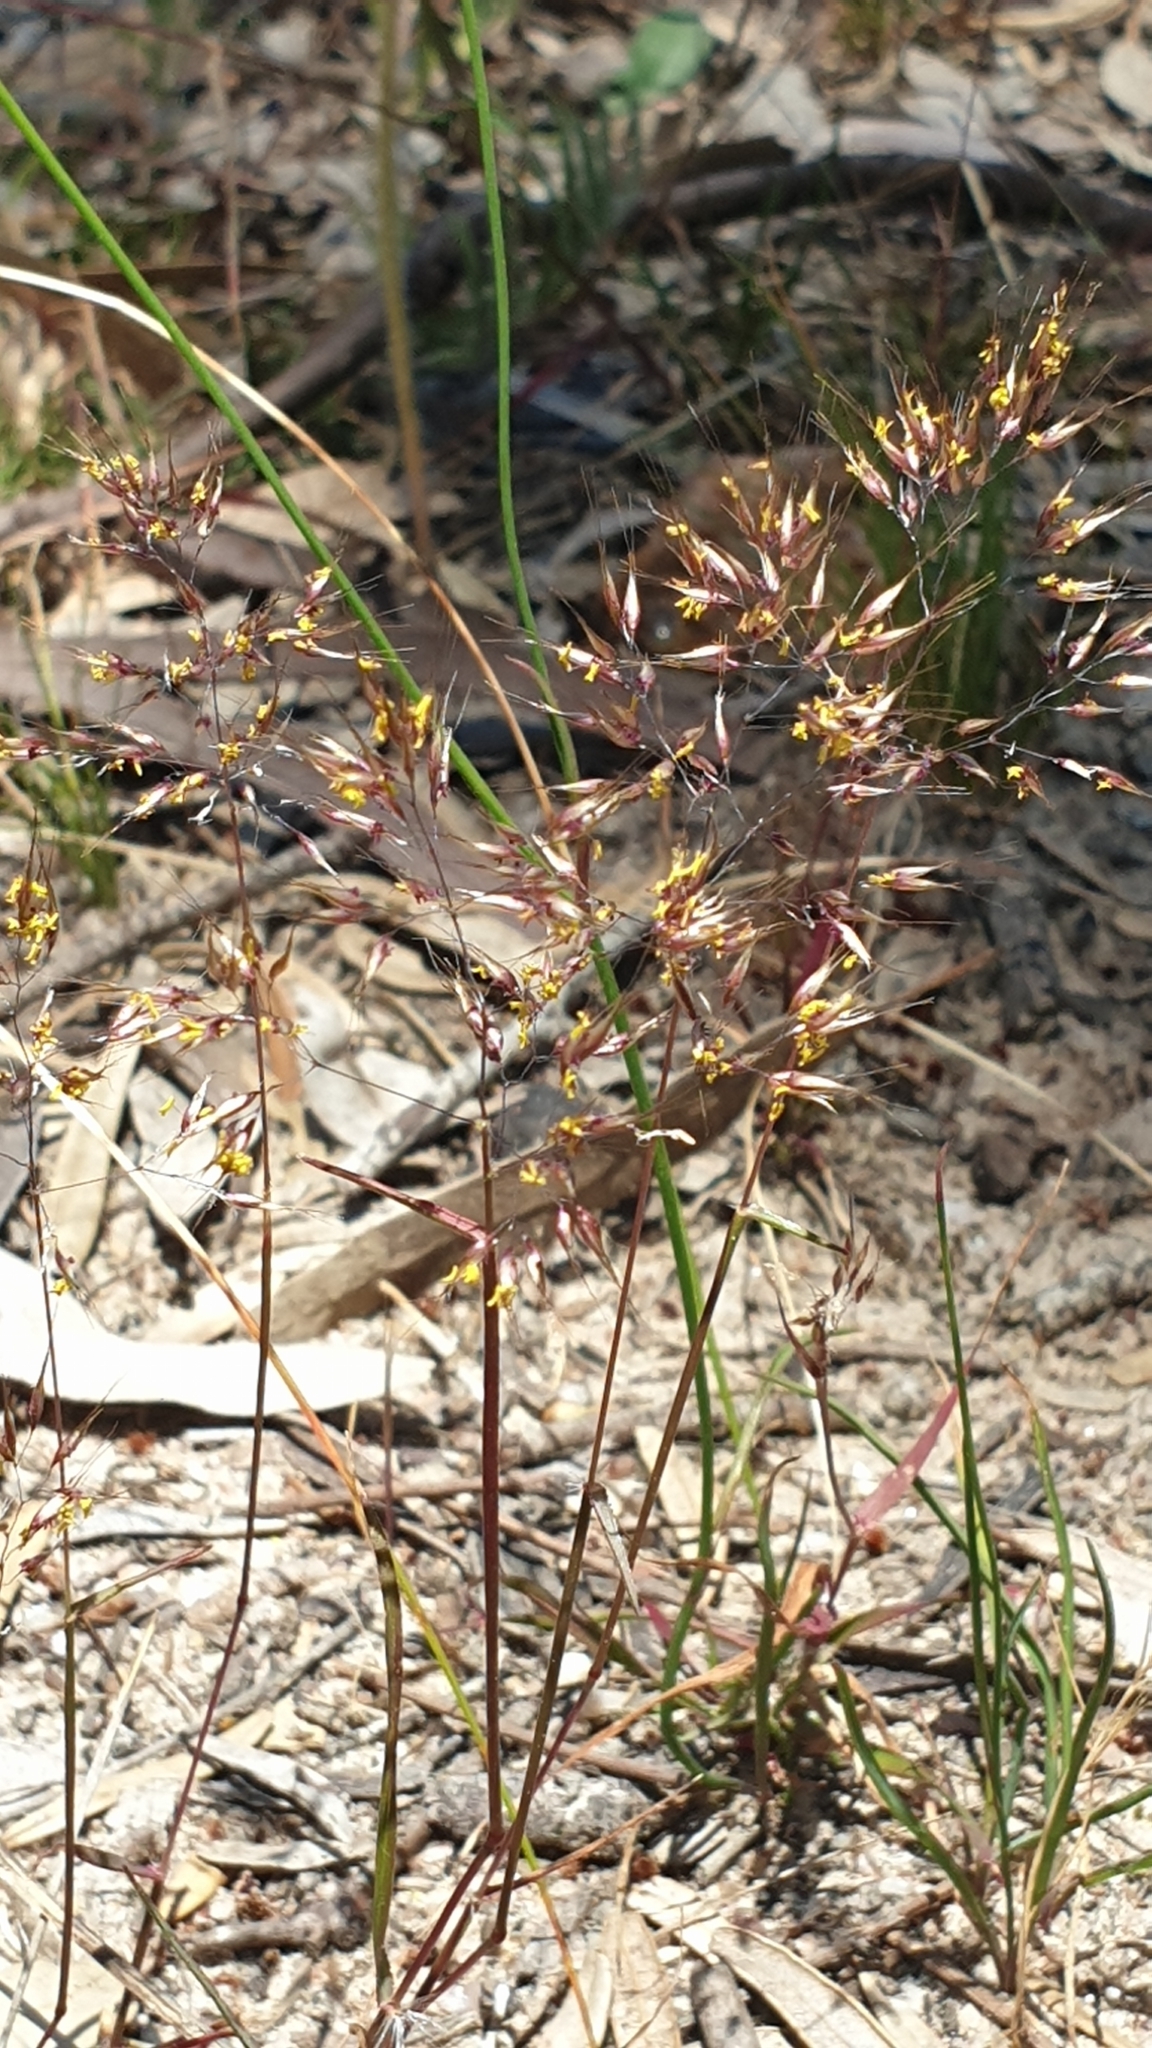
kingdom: Plantae
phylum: Tracheophyta
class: Liliopsida
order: Poales
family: Poaceae
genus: Pentameris
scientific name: Pentameris airoides
